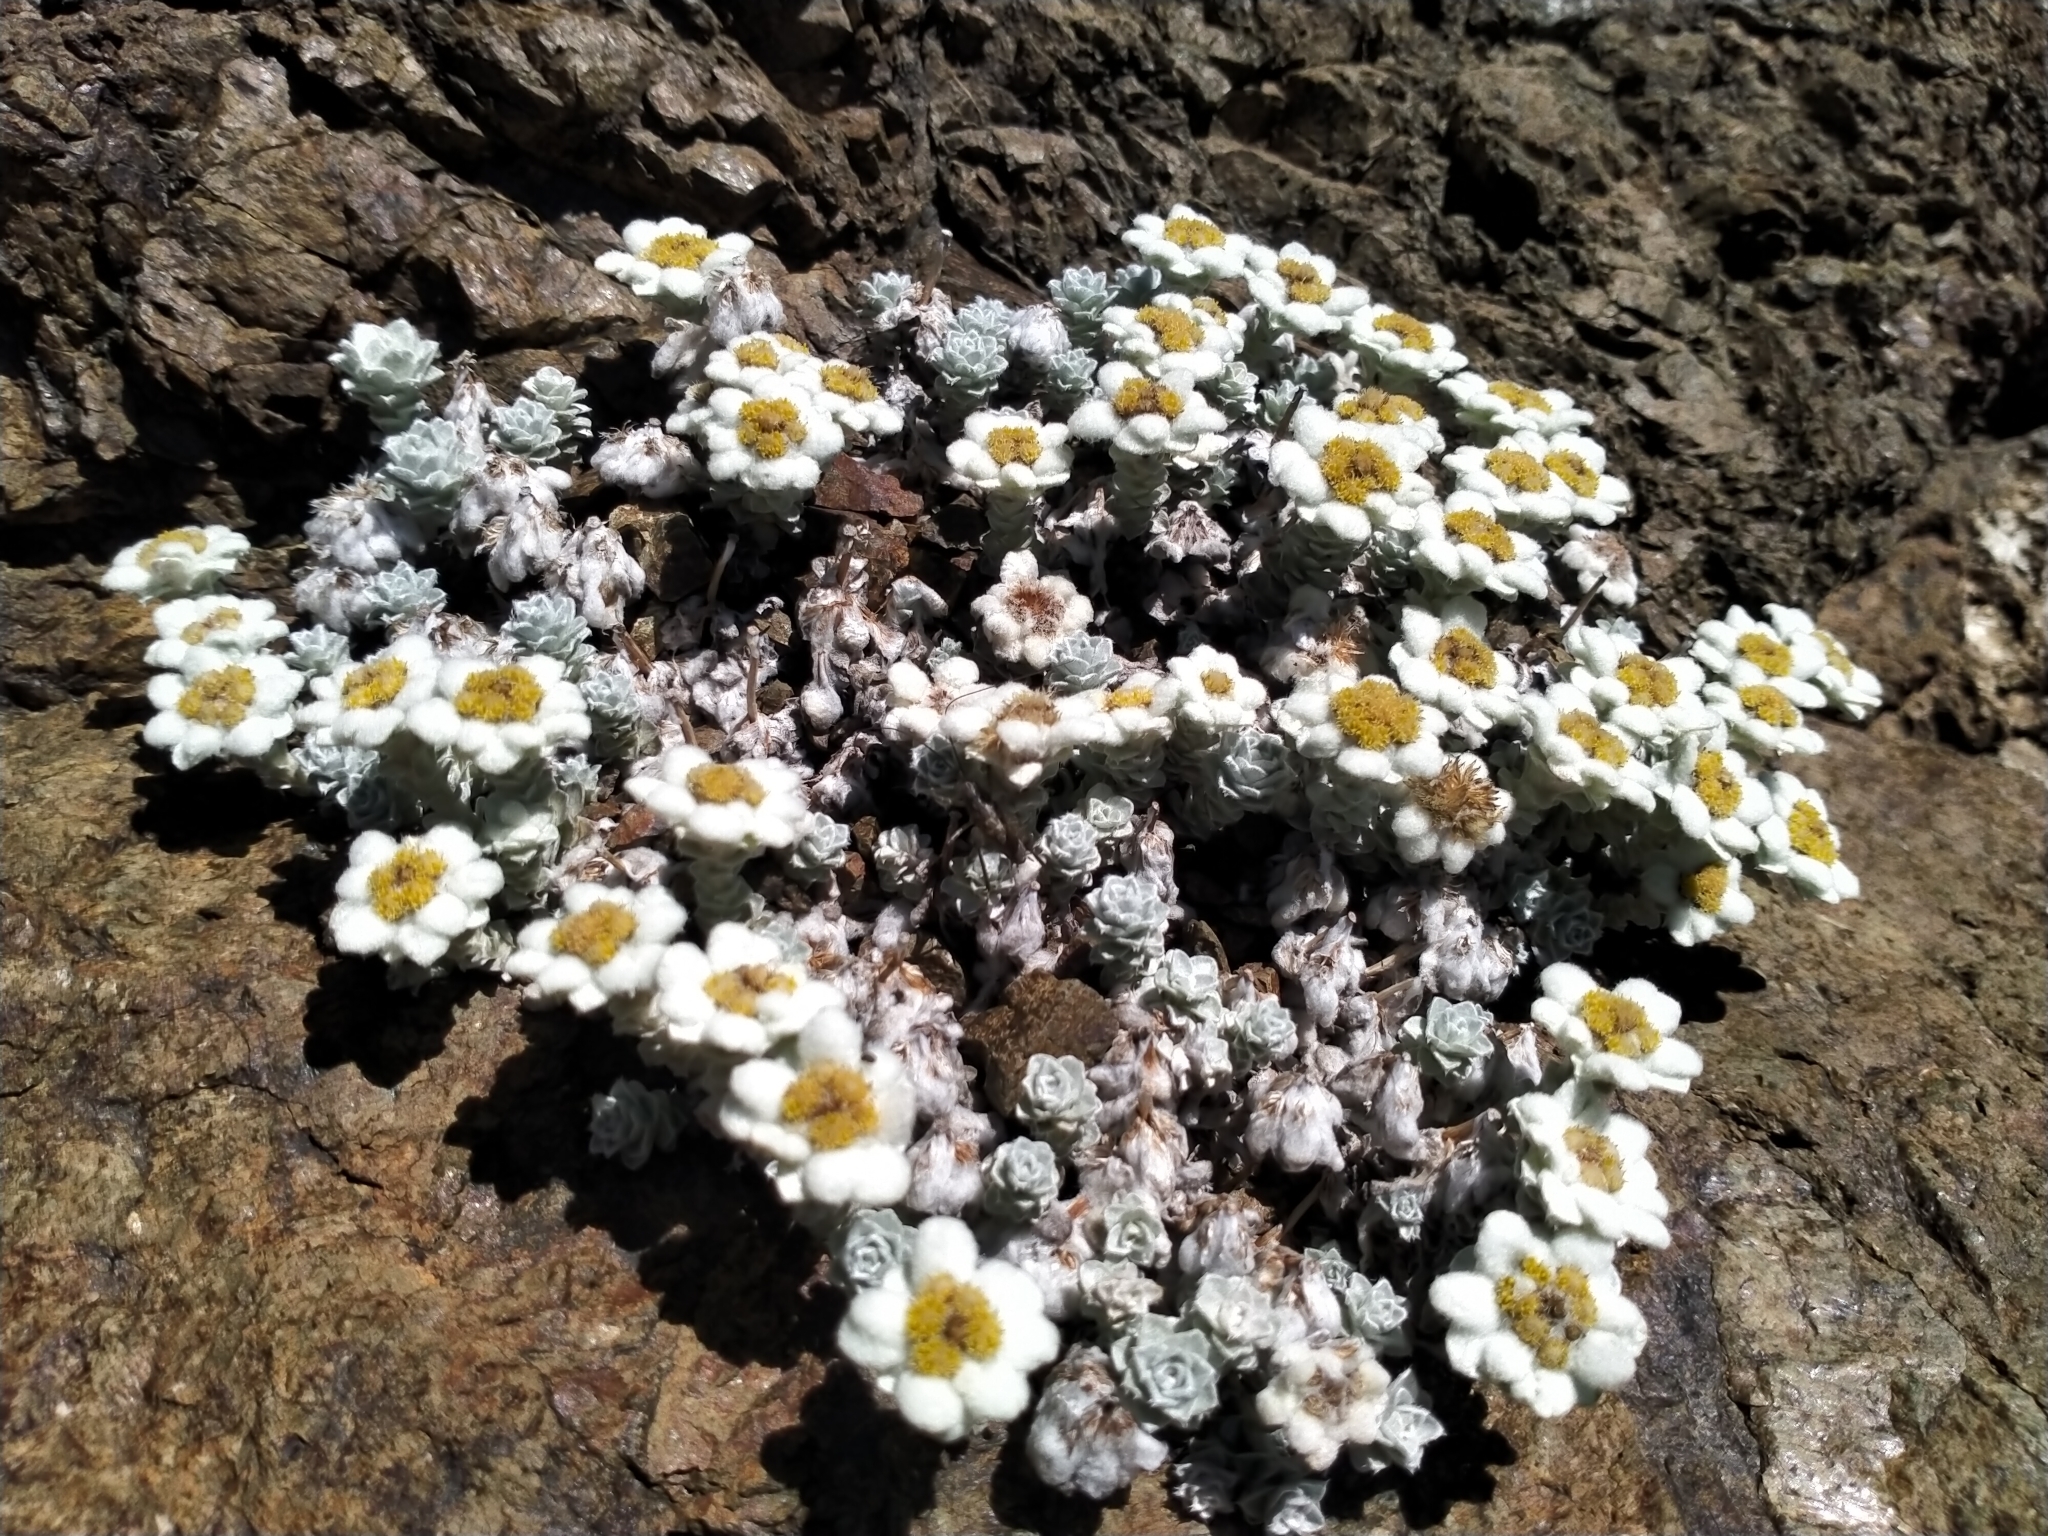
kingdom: Plantae
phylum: Tracheophyta
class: Magnoliopsida
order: Asterales
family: Asteraceae
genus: Leucogenes
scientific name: Leucogenes grandiceps
